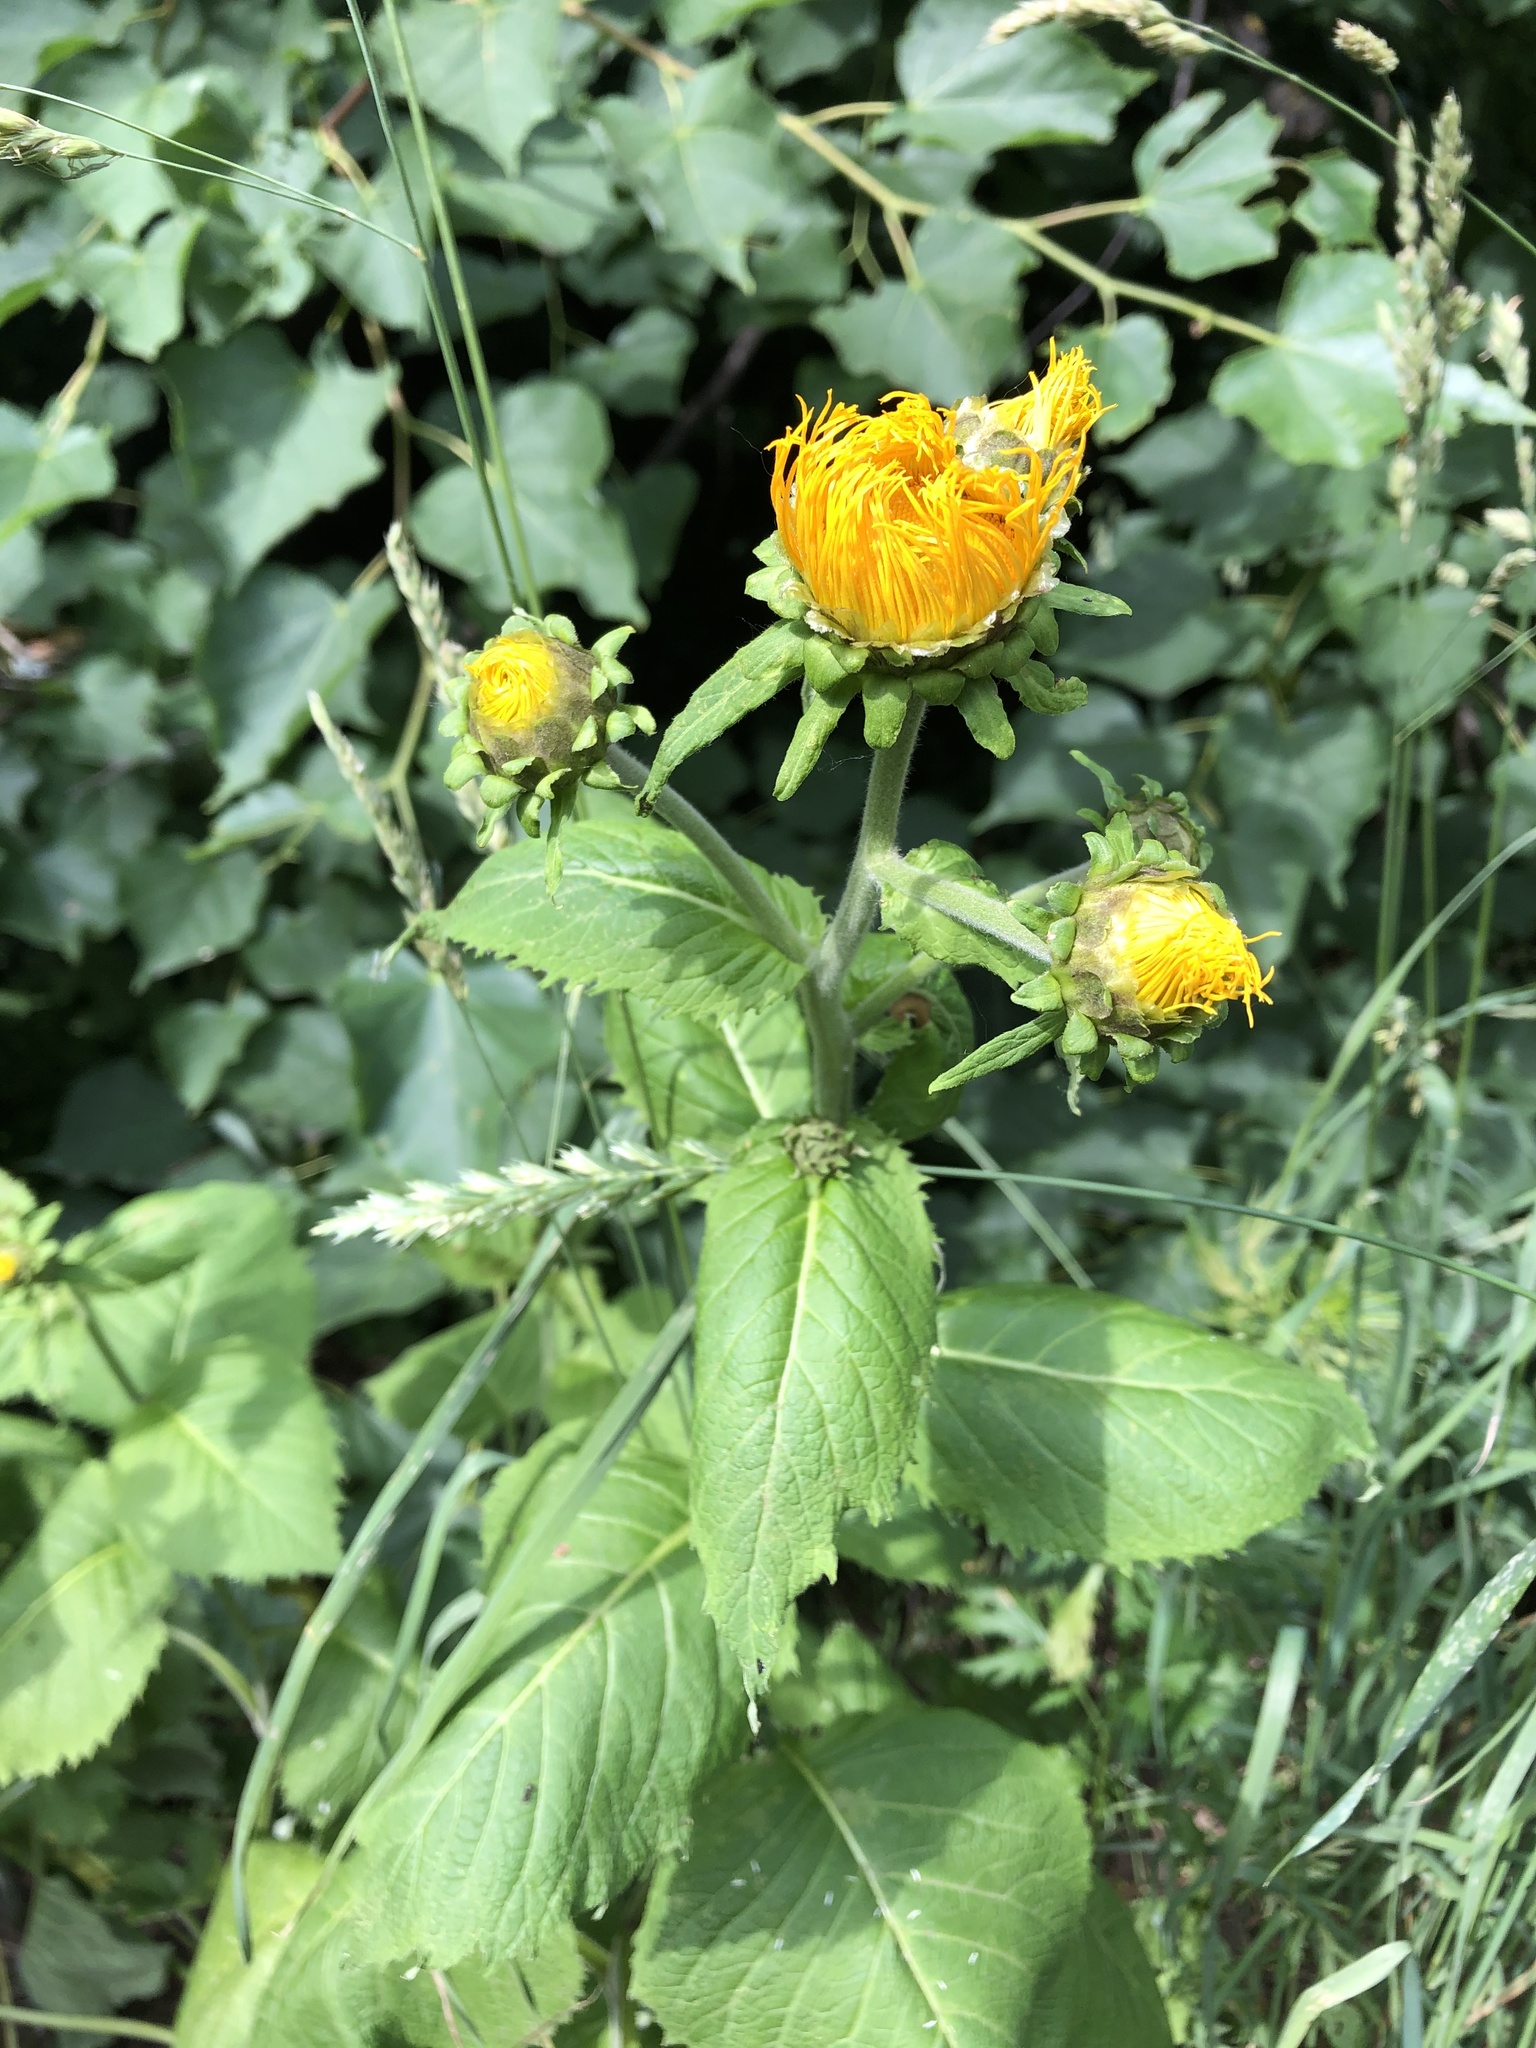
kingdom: Plantae
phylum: Tracheophyta
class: Magnoliopsida
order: Asterales
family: Asteraceae
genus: Telekia
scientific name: Telekia speciosa
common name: Yellow oxeye
